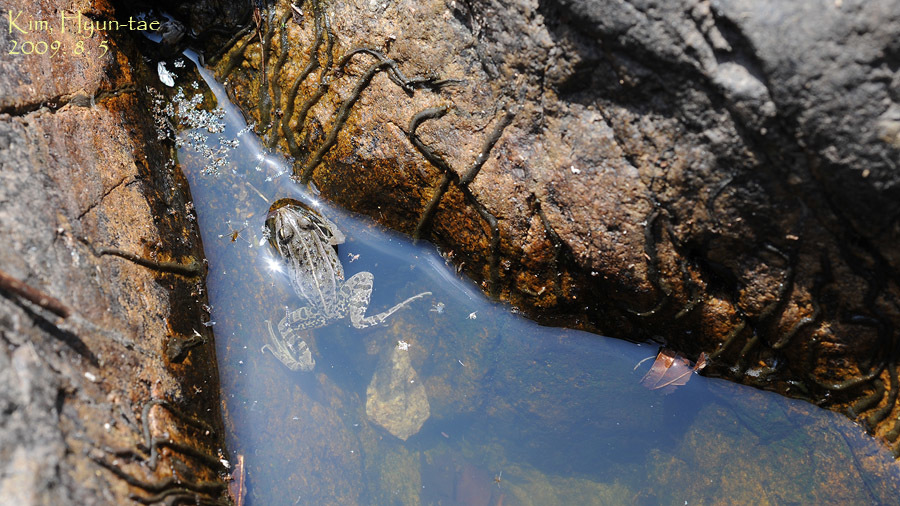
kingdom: Animalia
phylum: Chordata
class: Amphibia
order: Anura
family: Ranidae
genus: Pelophylax
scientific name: Pelophylax nigromaculatus
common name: Black-spotted pond frog
